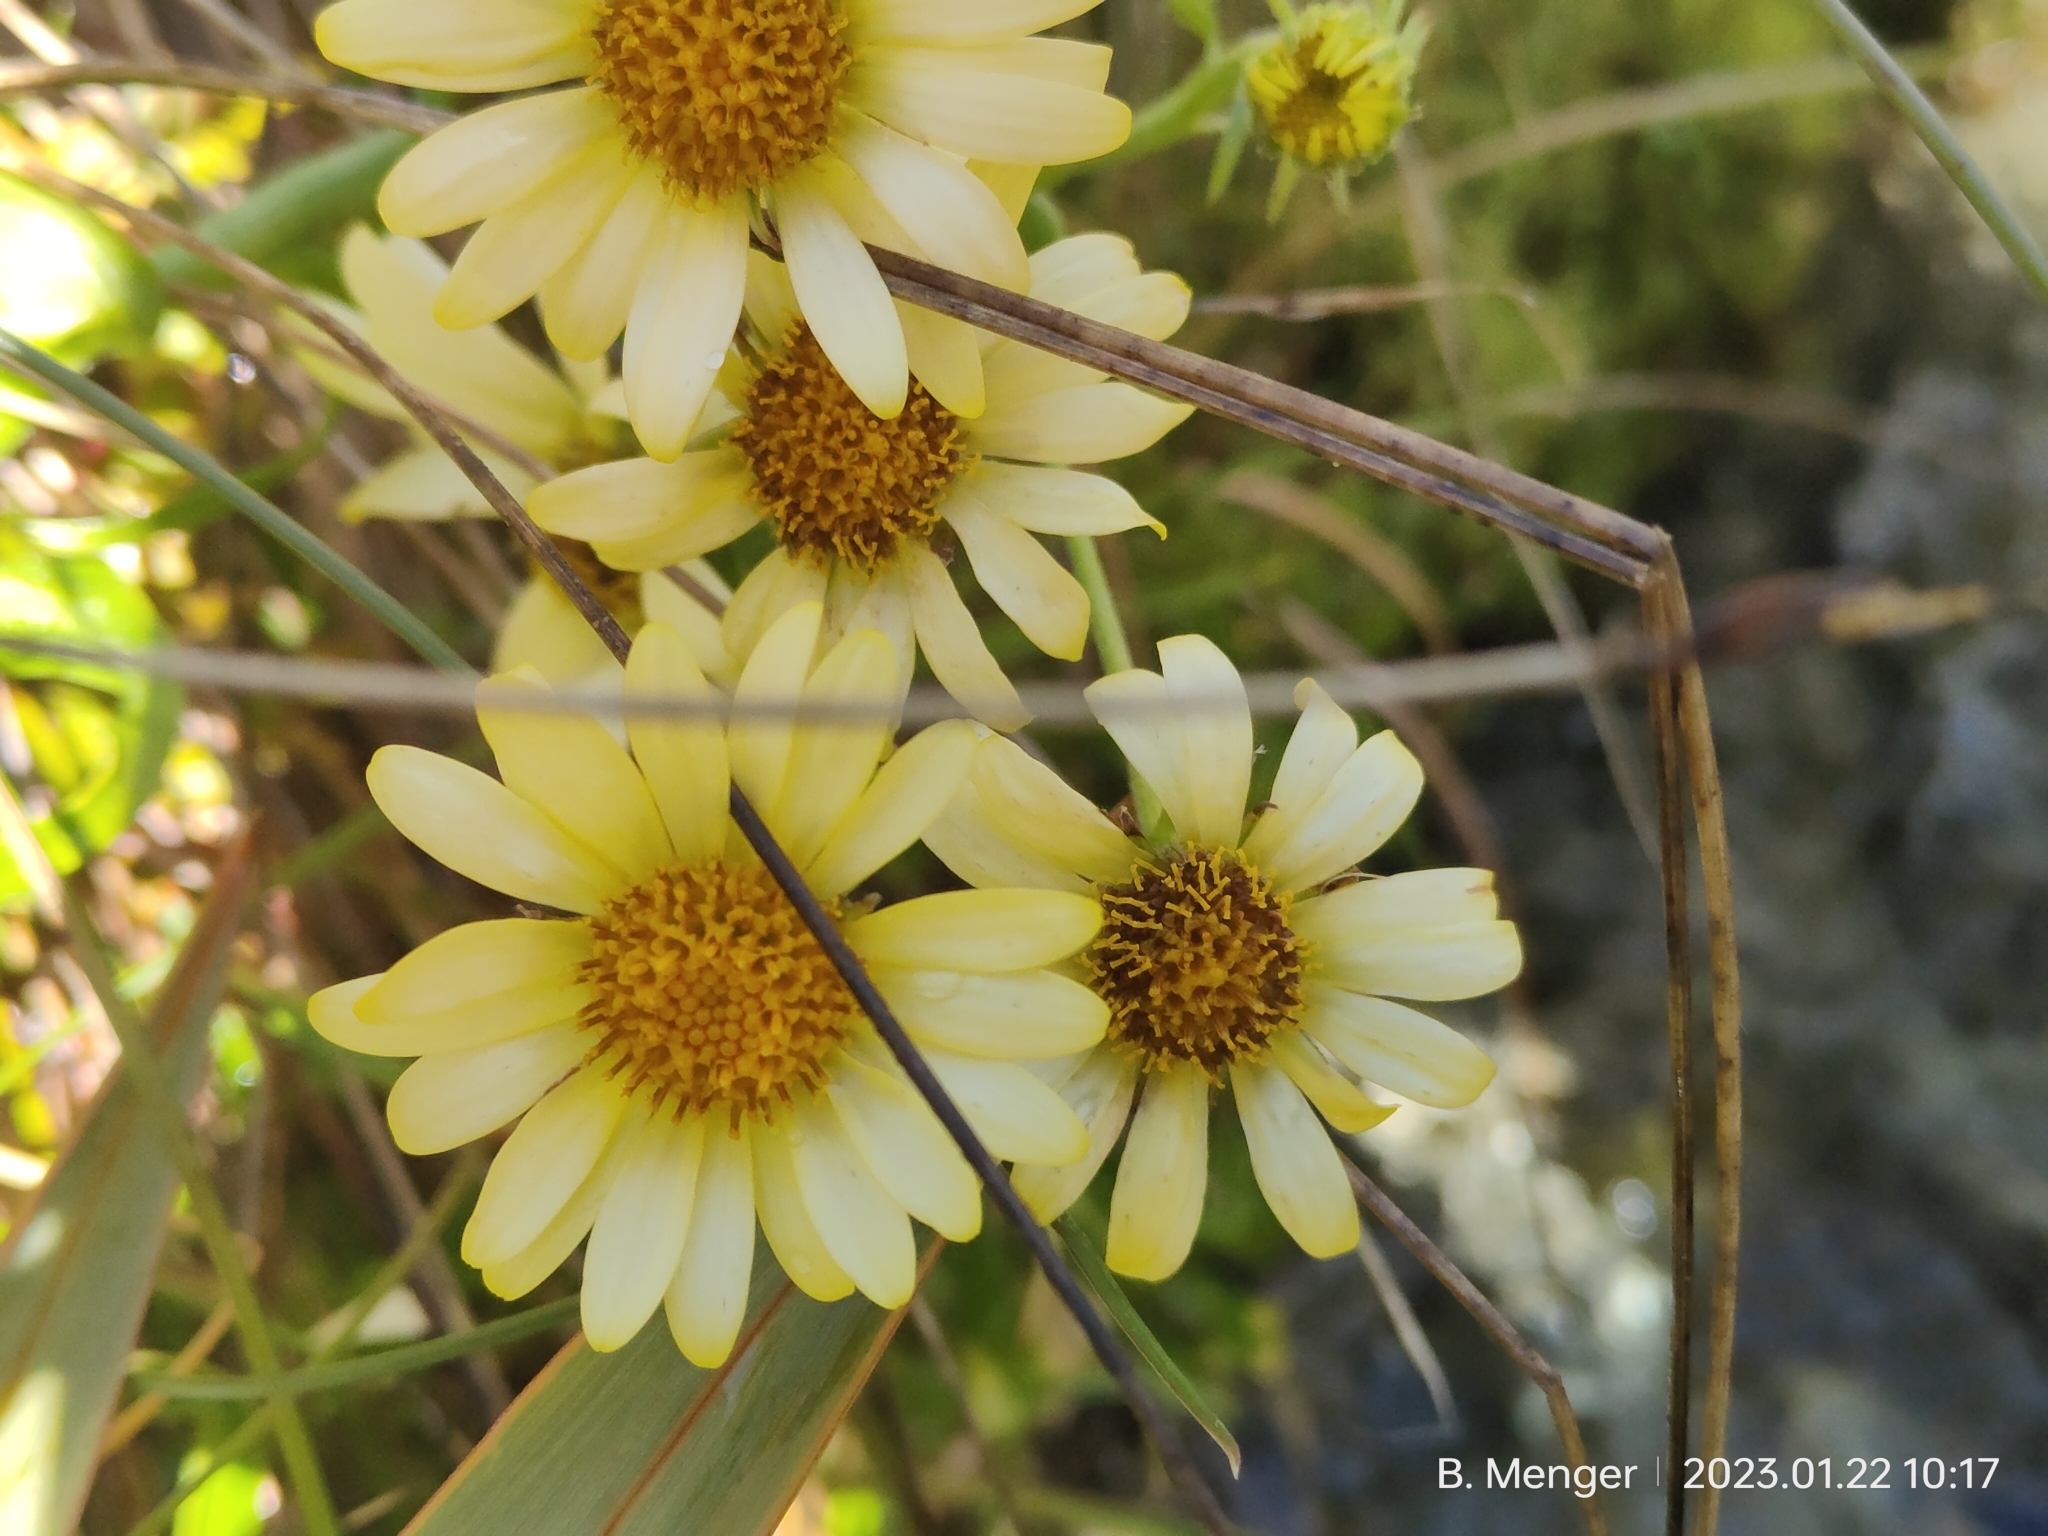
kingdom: Plantae
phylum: Tracheophyta
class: Magnoliopsida
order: Asterales
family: Asteraceae
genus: Dolichoglottis
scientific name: Dolichoglottis
